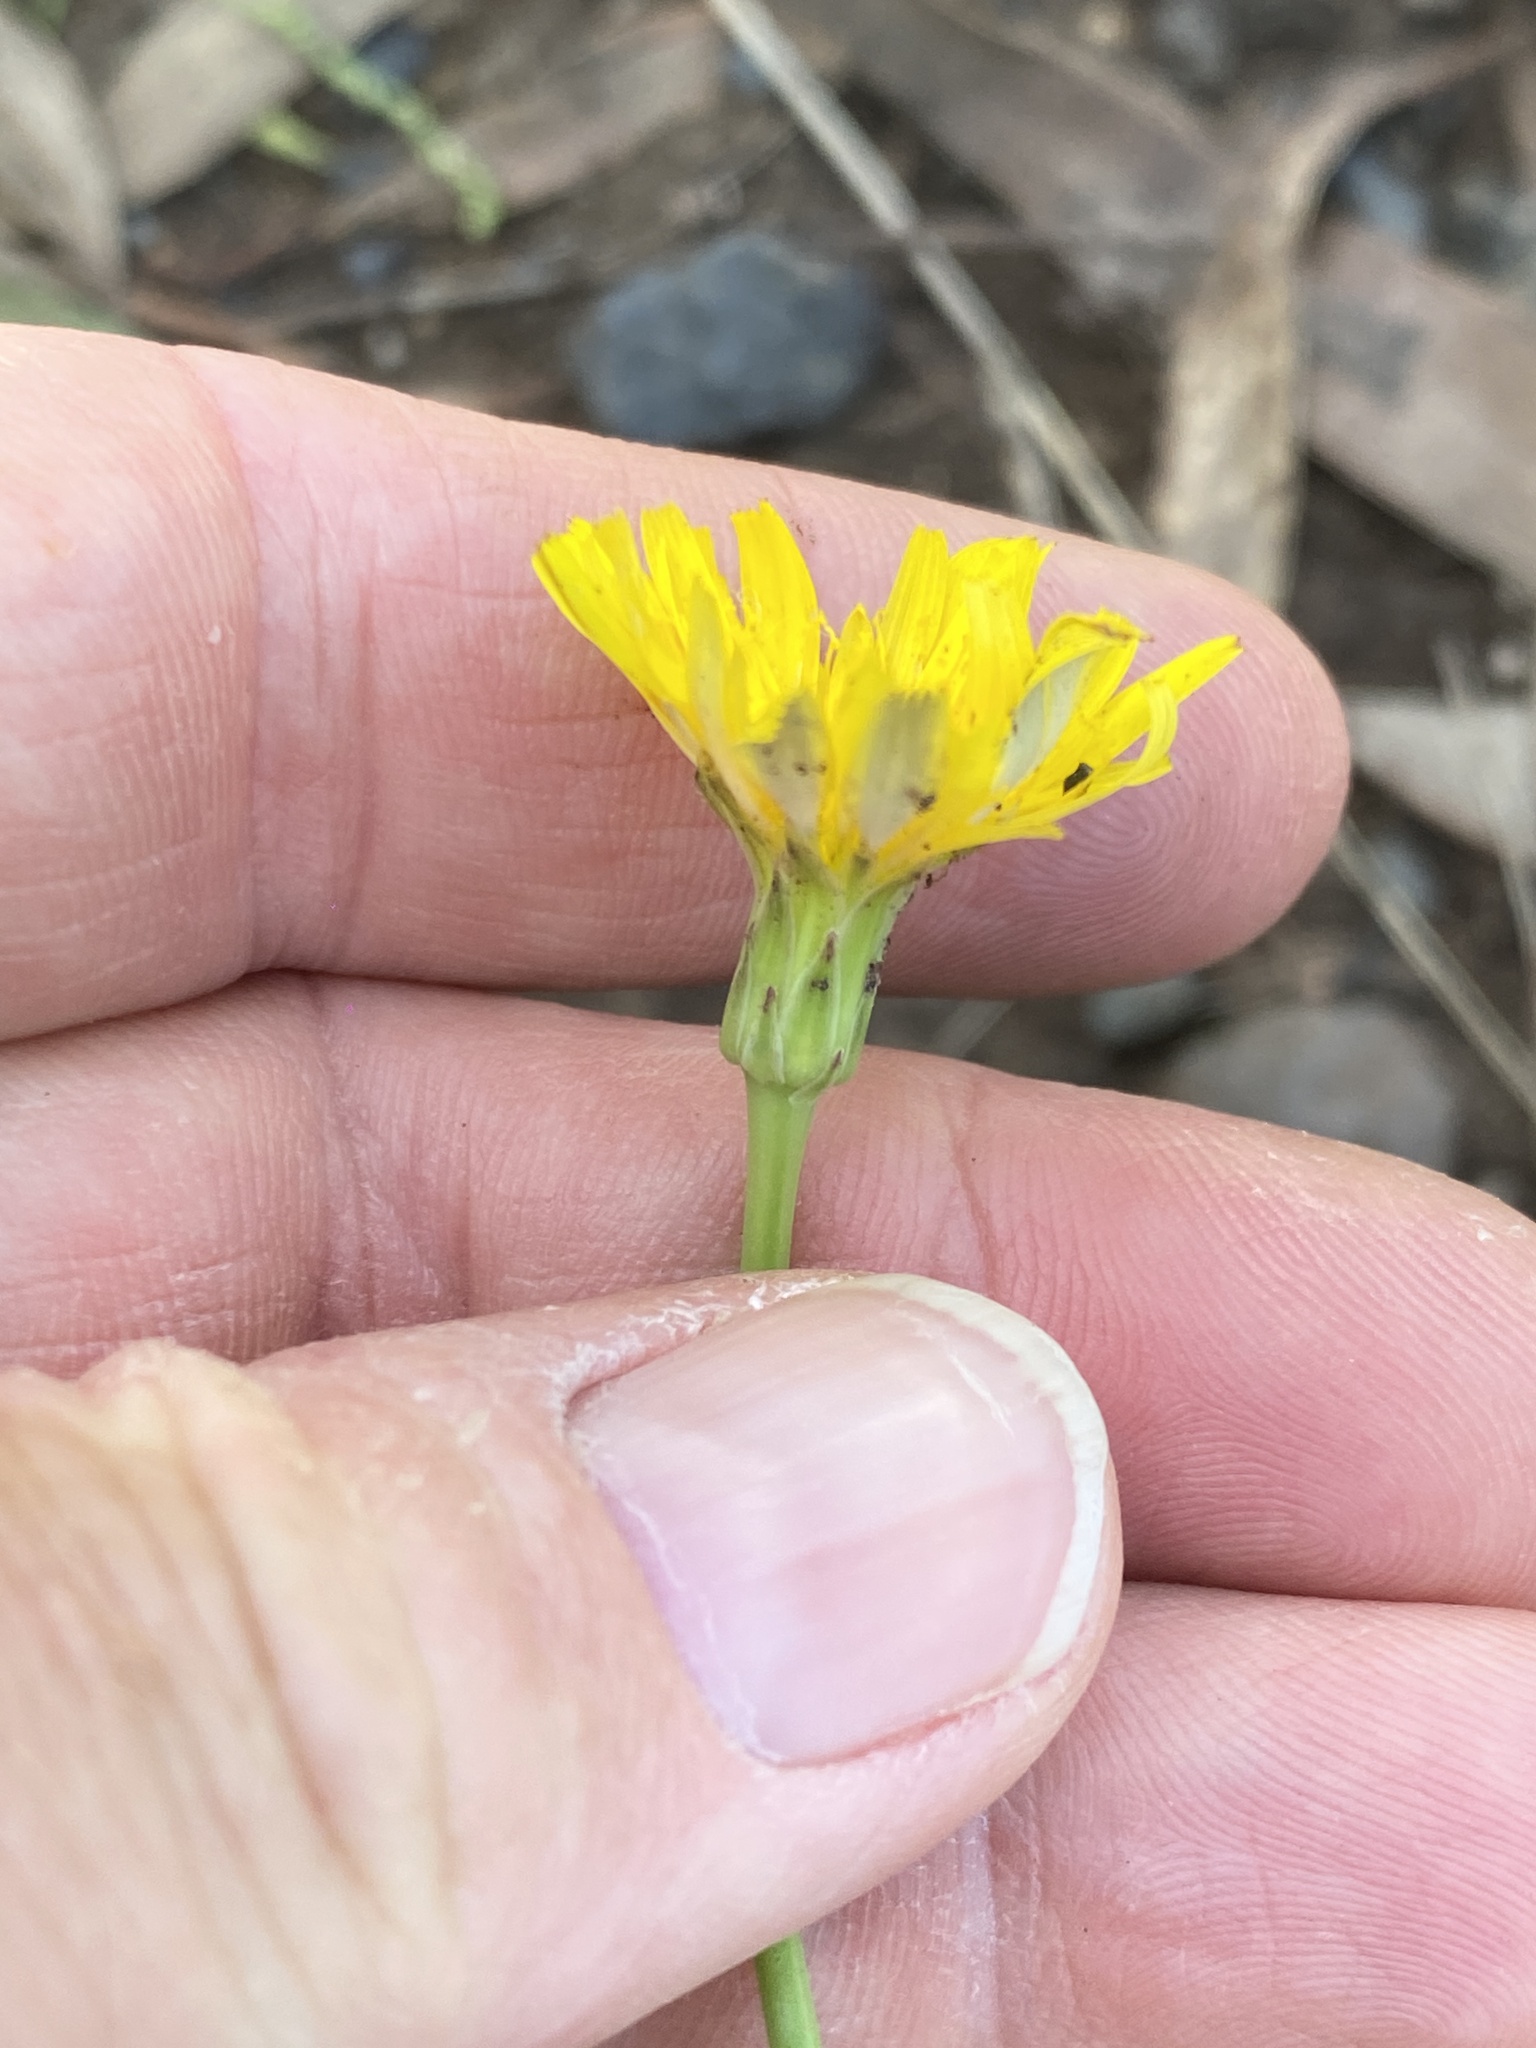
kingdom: Plantae
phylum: Tracheophyta
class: Magnoliopsida
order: Asterales
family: Asteraceae
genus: Hypochaeris
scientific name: Hypochaeris radicata
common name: Flatweed
